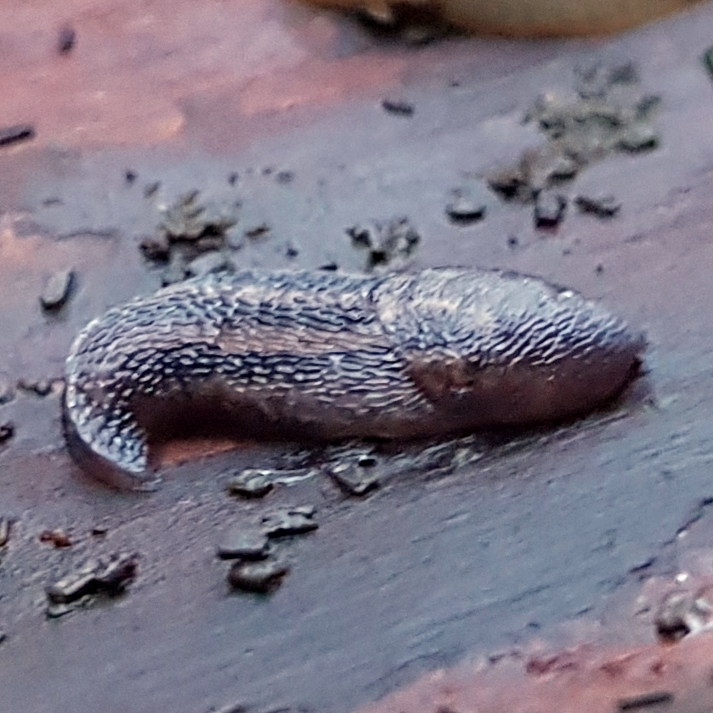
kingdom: Animalia
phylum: Mollusca
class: Gastropoda
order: Stylommatophora
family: Limacidae
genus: Limax
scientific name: Limax maximus
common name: Great grey slug
